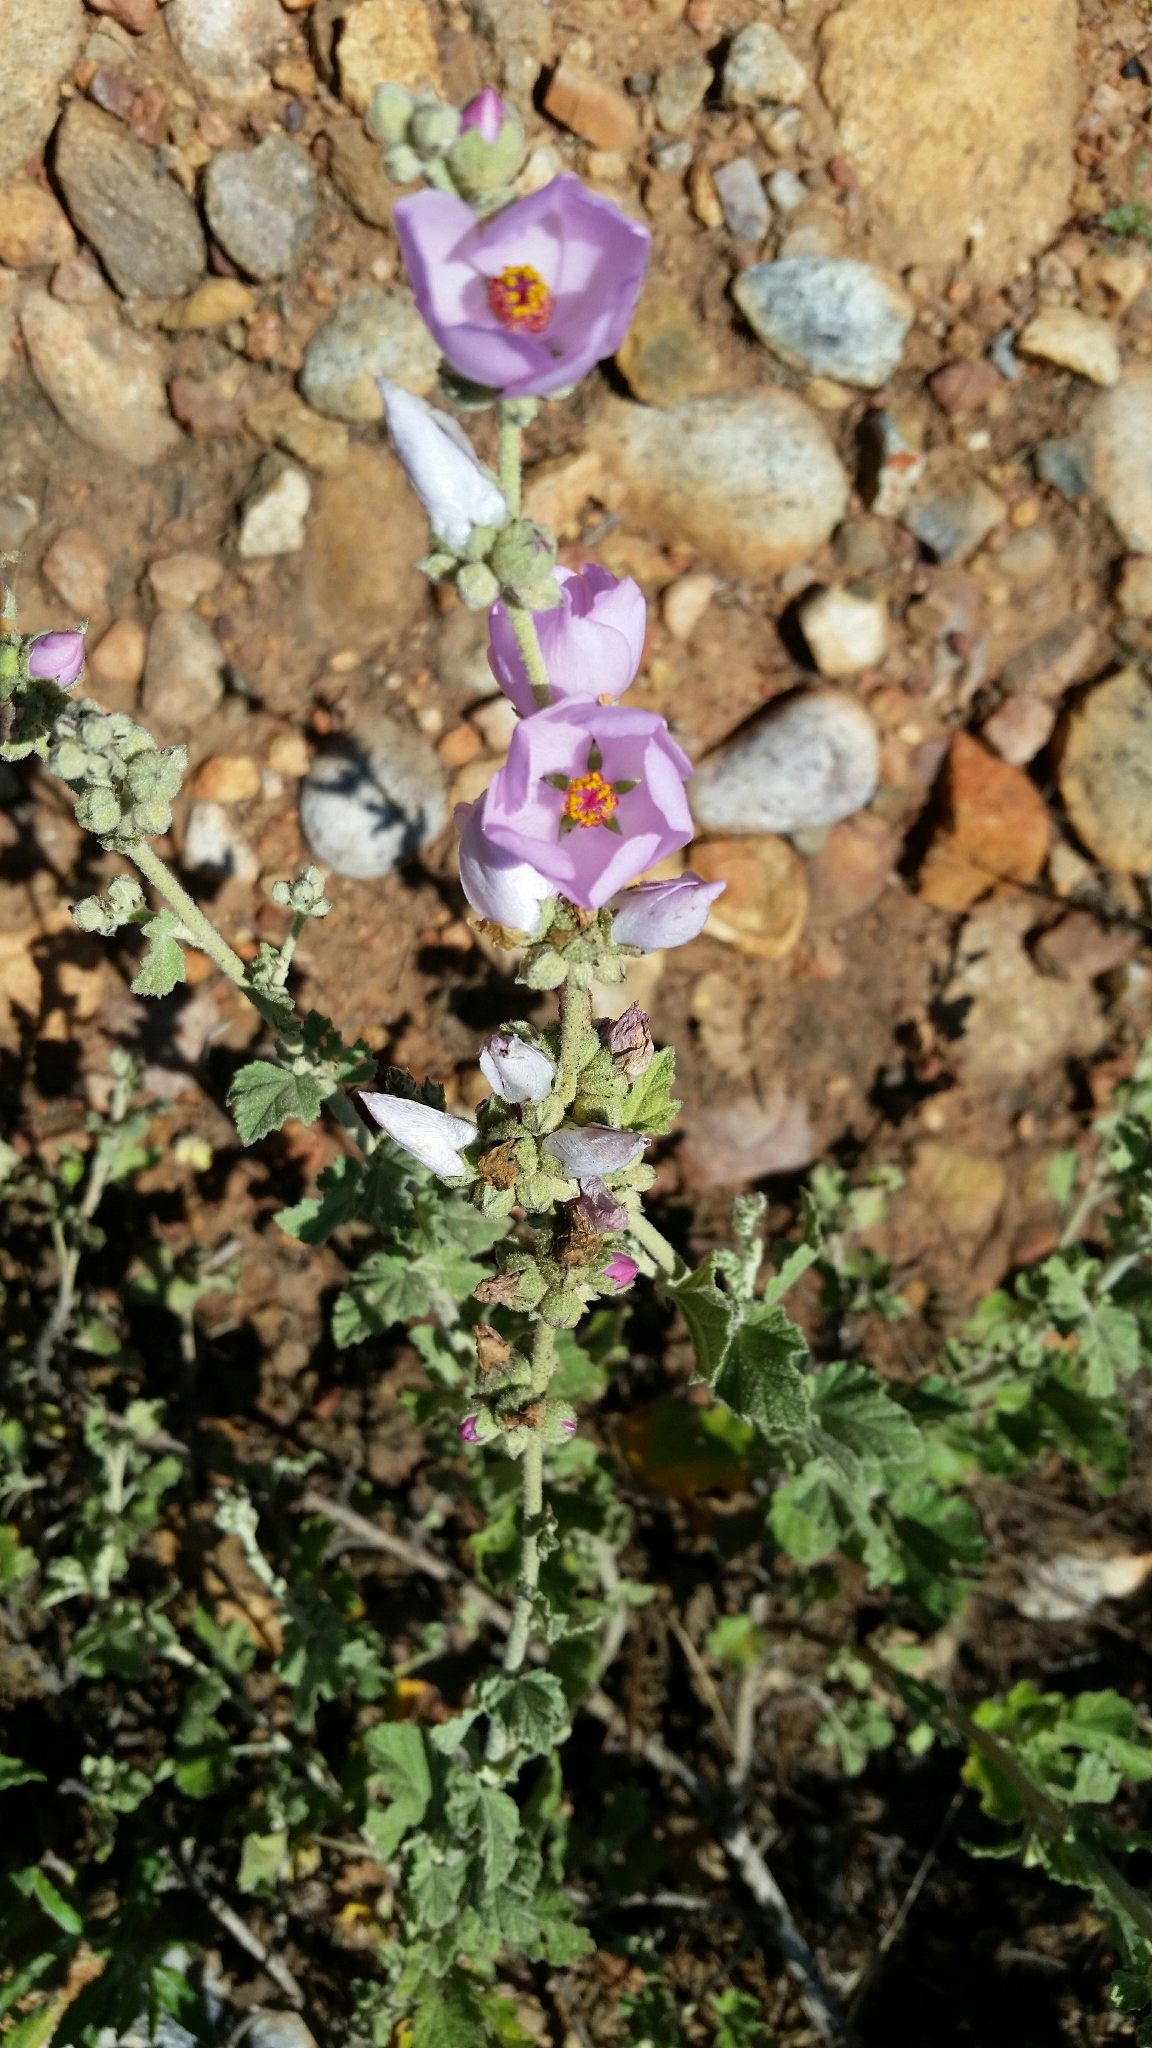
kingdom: Plantae
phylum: Tracheophyta
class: Magnoliopsida
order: Malvales
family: Malvaceae
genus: Malacothamnus
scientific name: Malacothamnus fasciculatus
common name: Sant cruz island bush-mallow
